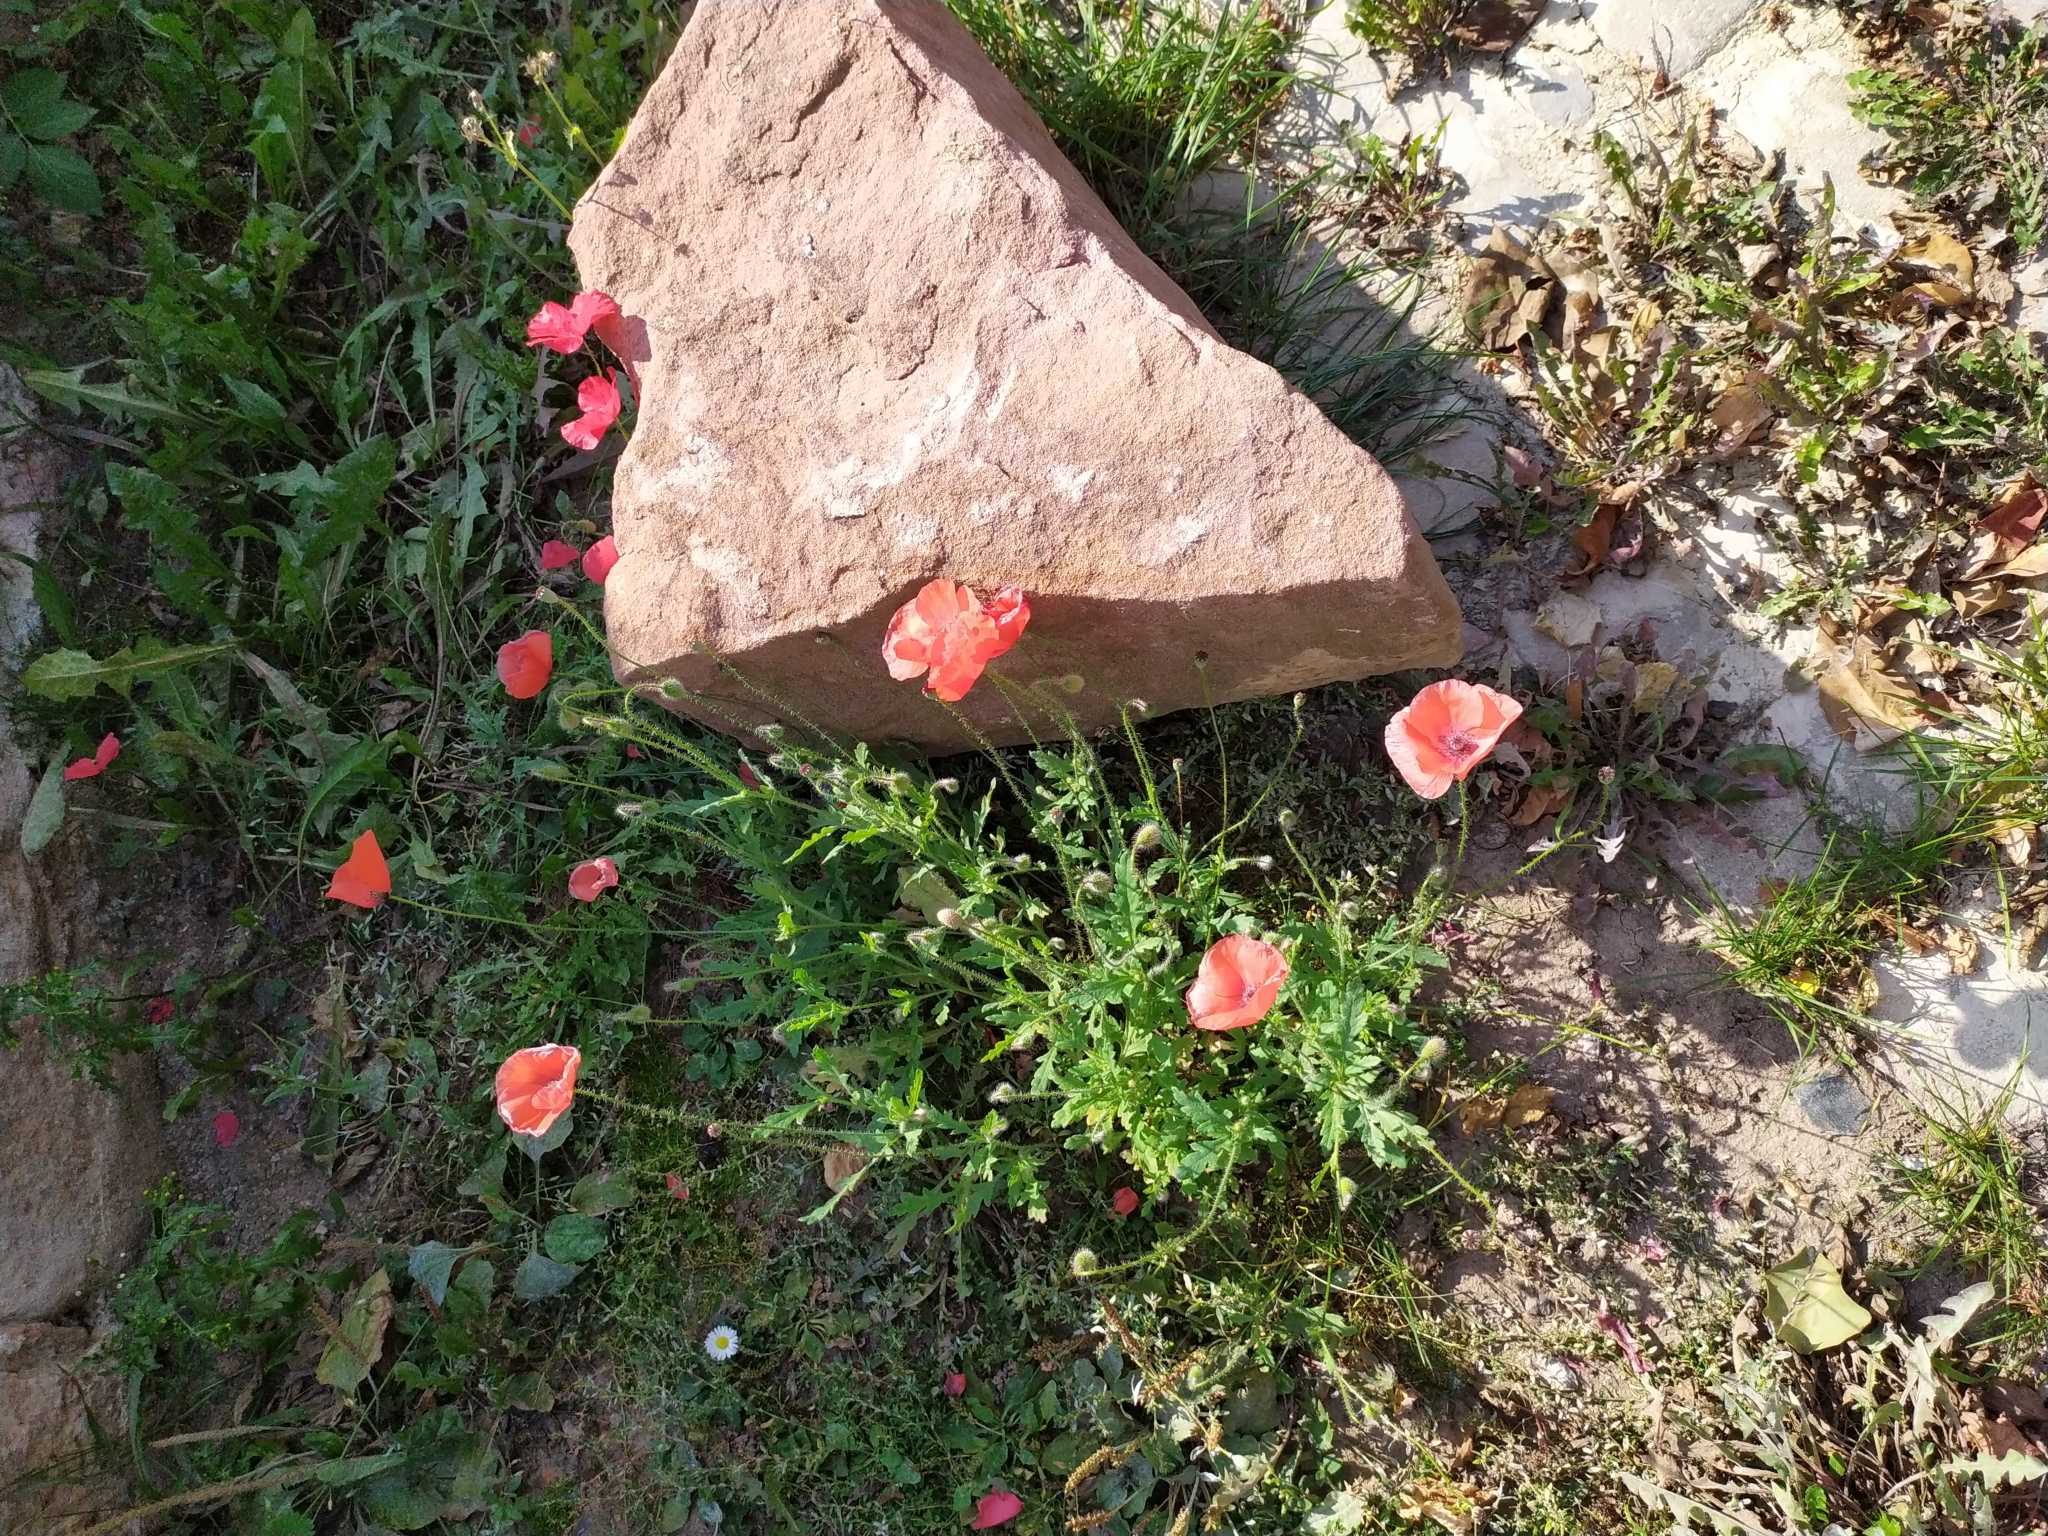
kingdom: Plantae
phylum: Tracheophyta
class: Magnoliopsida
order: Ranunculales
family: Papaveraceae
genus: Papaver
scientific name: Papaver rhoeas
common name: Corn poppy
